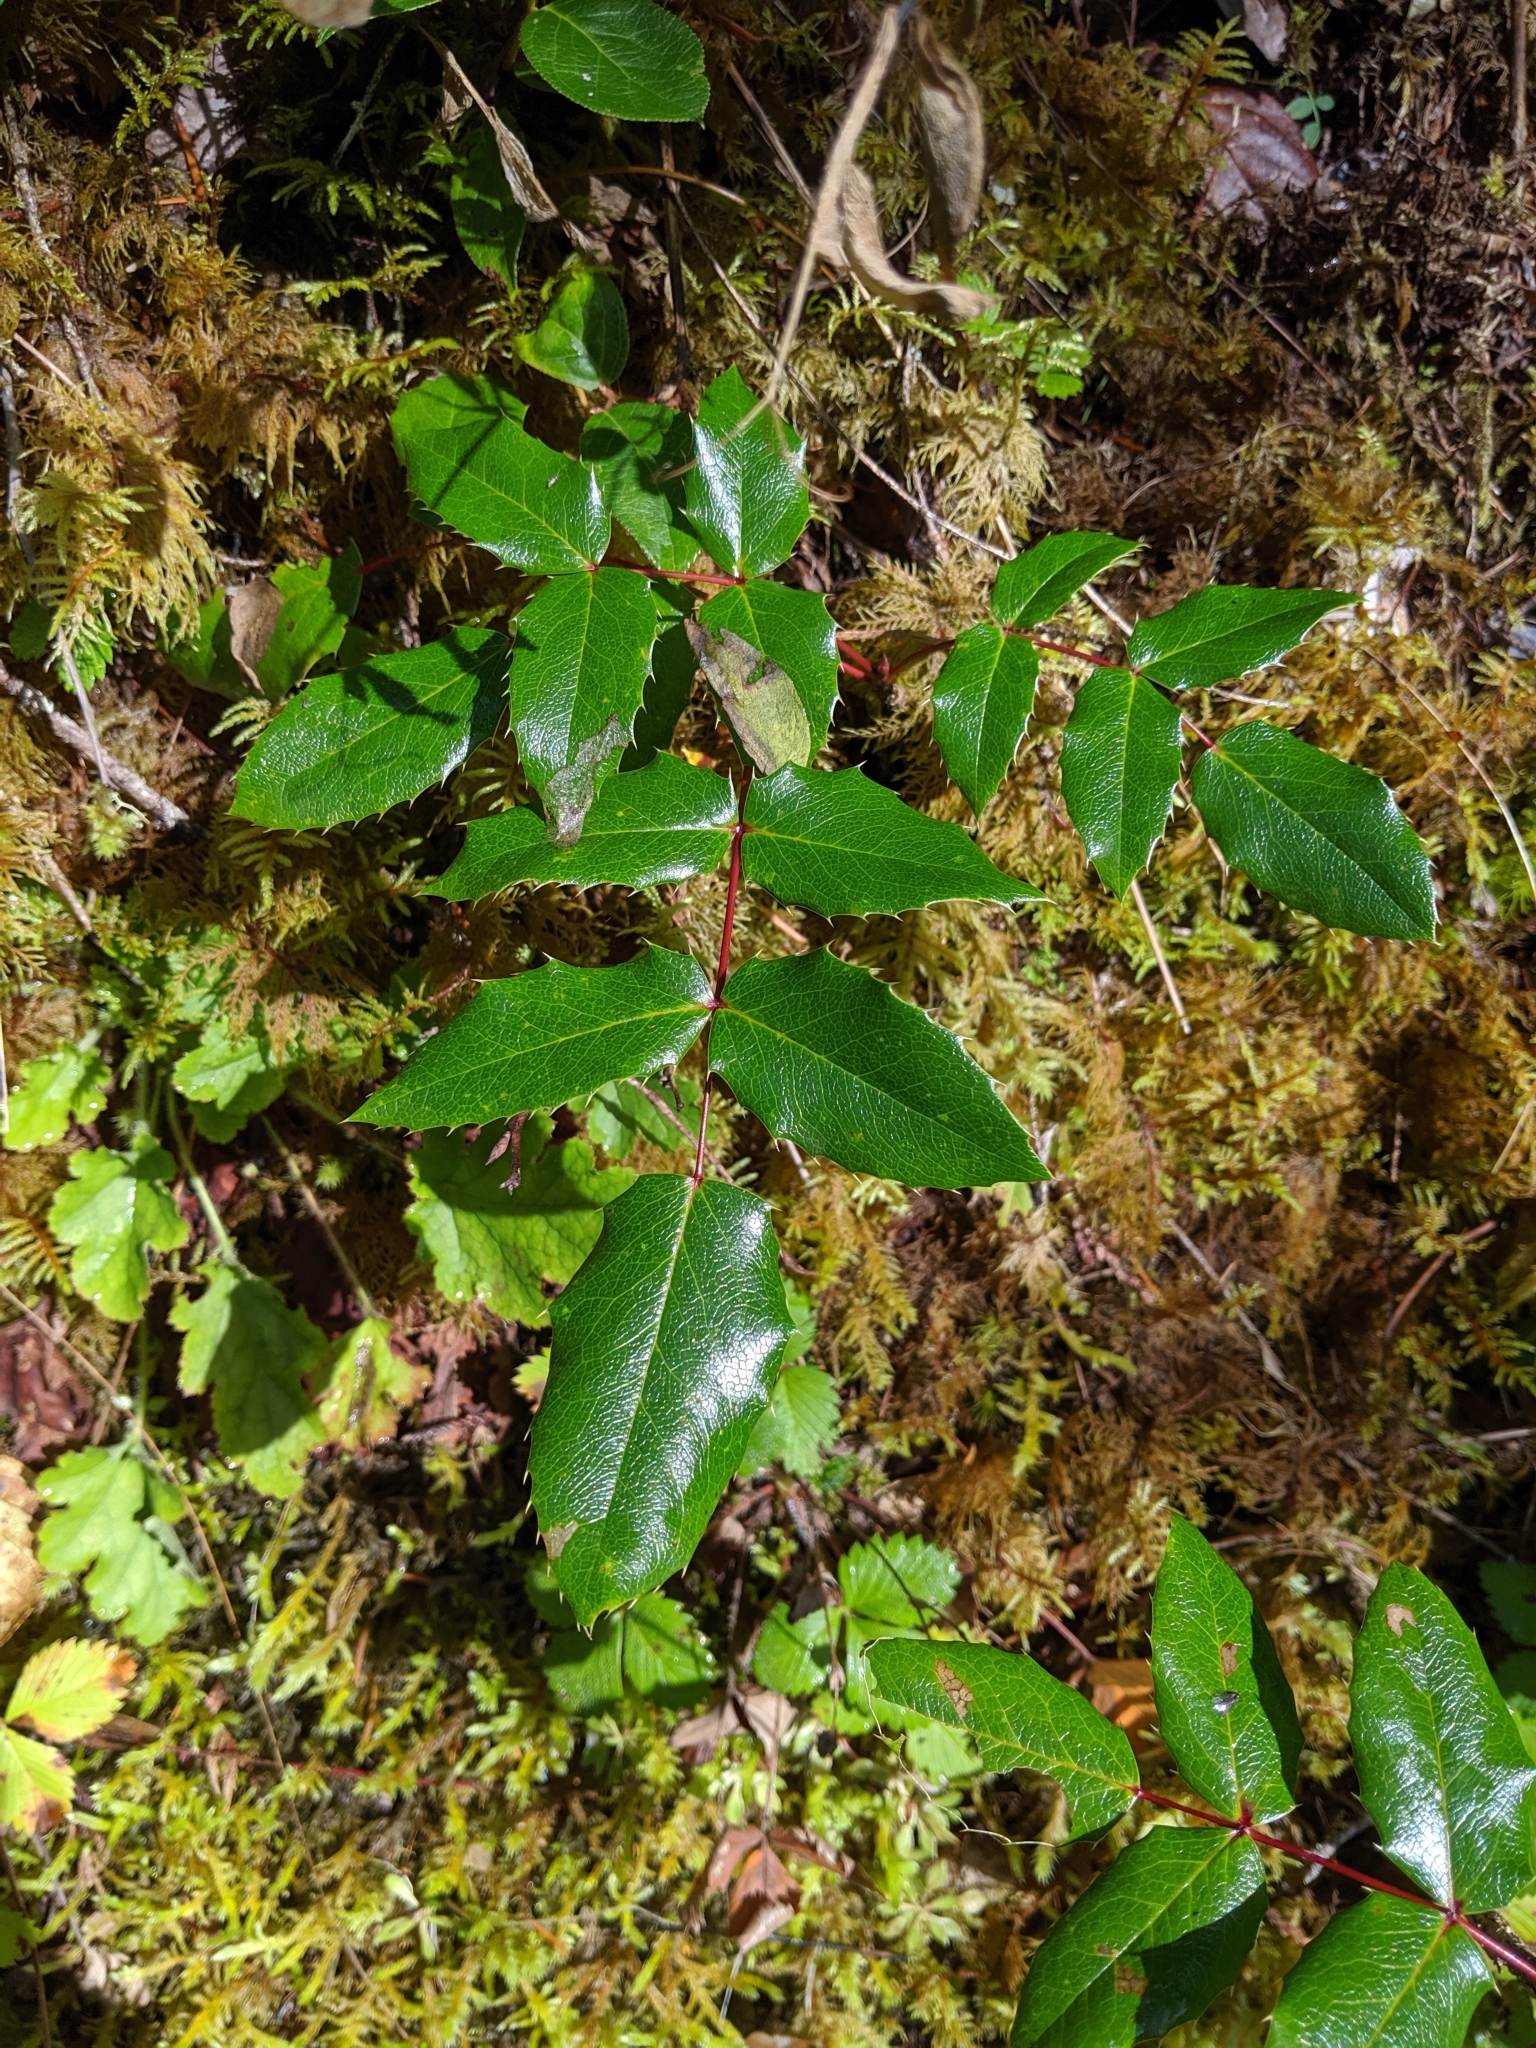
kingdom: Plantae
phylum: Tracheophyta
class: Magnoliopsida
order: Ranunculales
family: Berberidaceae
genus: Mahonia
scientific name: Mahonia aquifolium
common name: Oregon-grape
